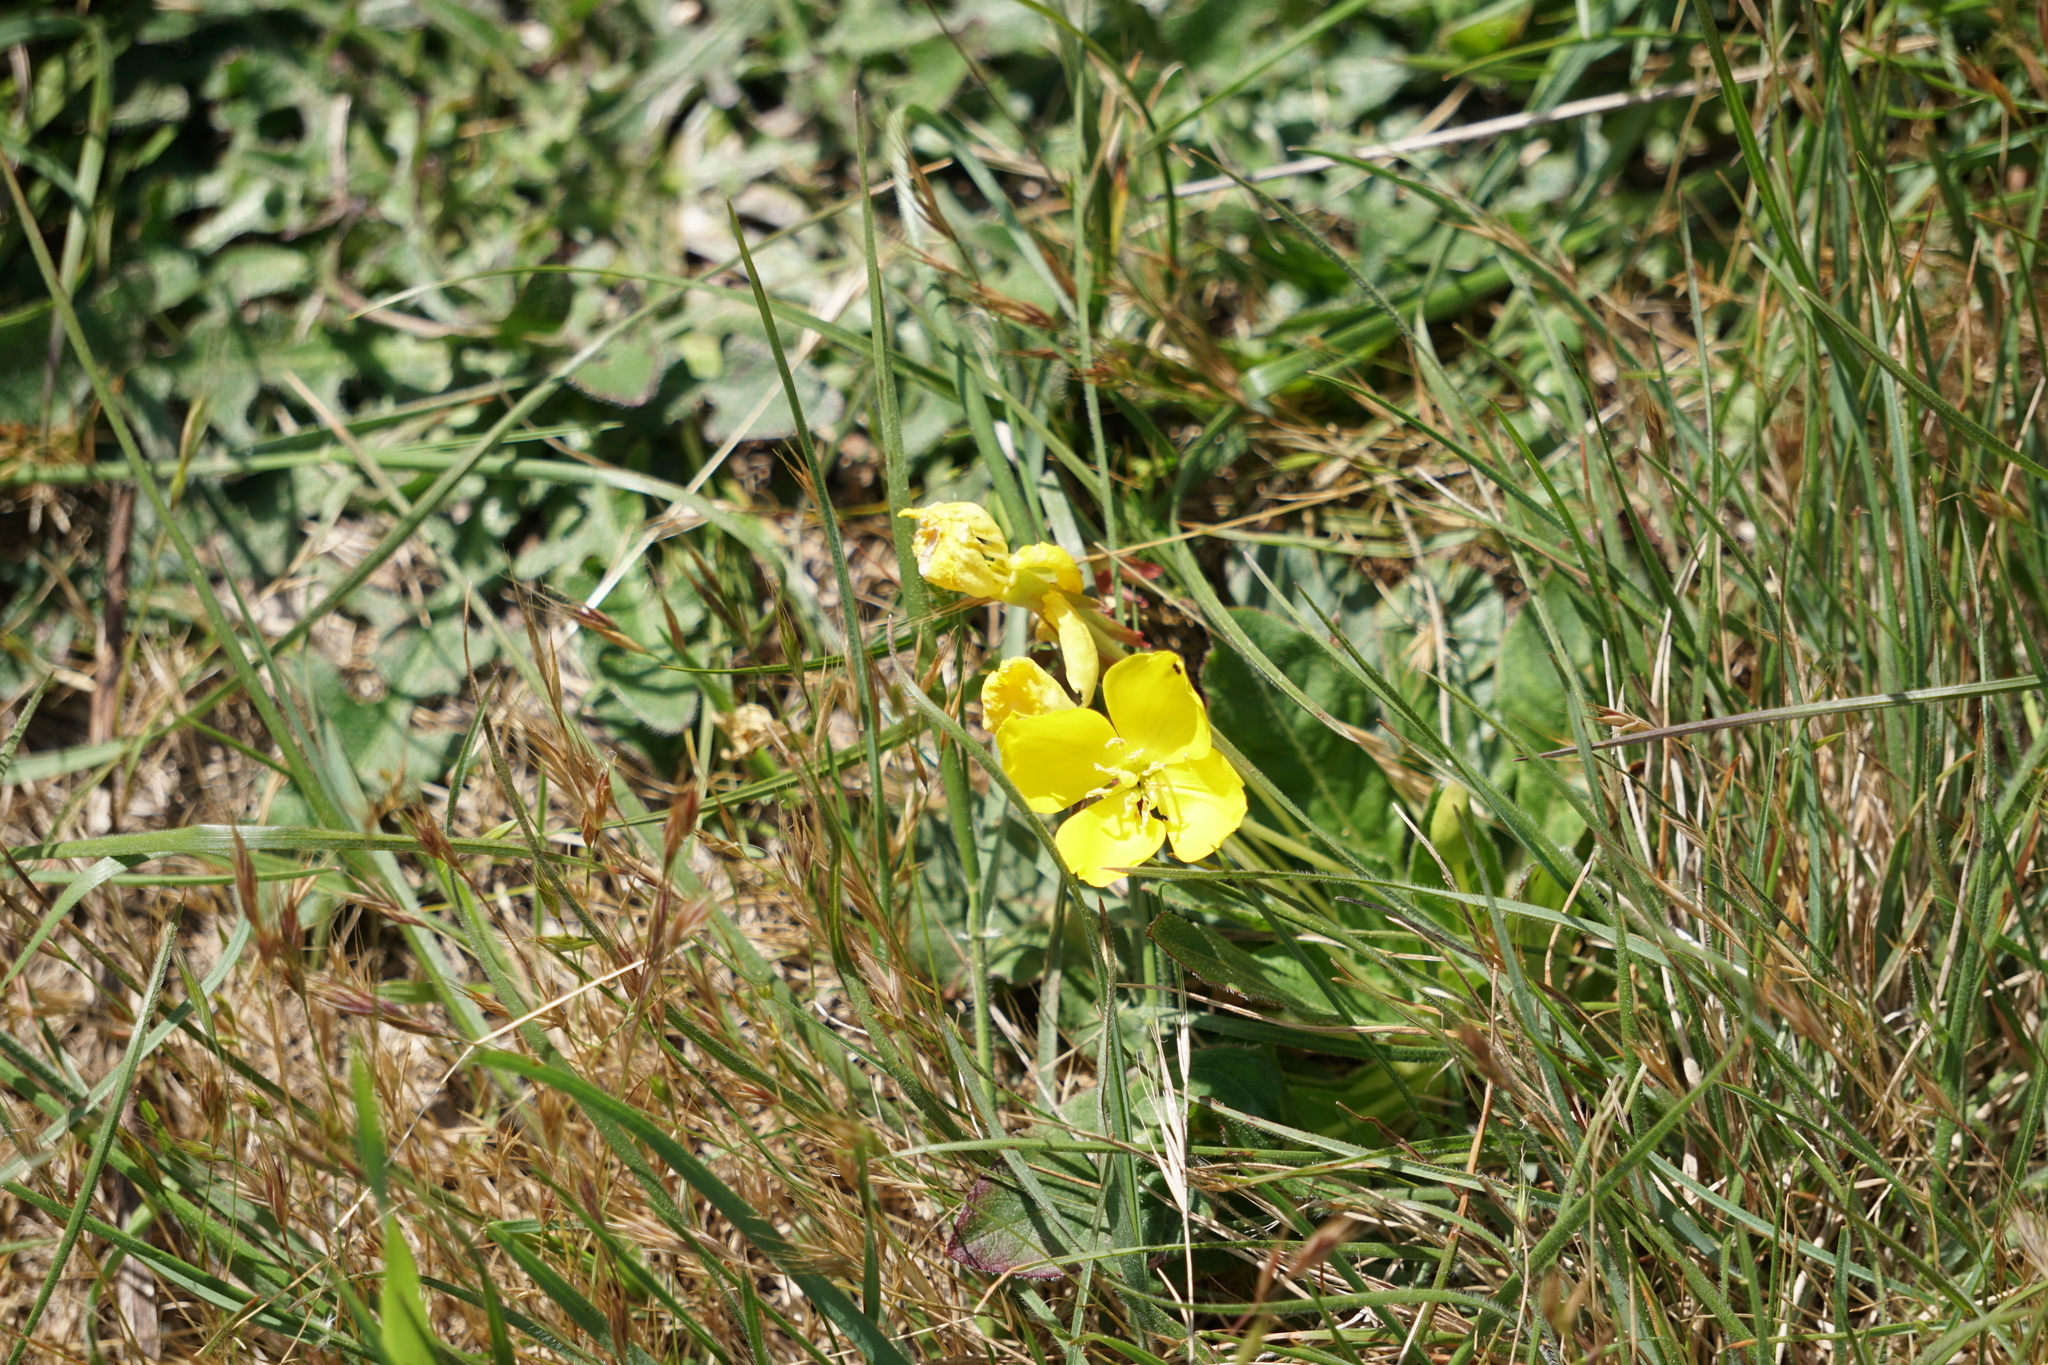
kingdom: Plantae
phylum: Tracheophyta
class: Magnoliopsida
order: Myrtales
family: Onagraceae
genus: Taraxia
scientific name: Taraxia ovata
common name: Goldeneggs
